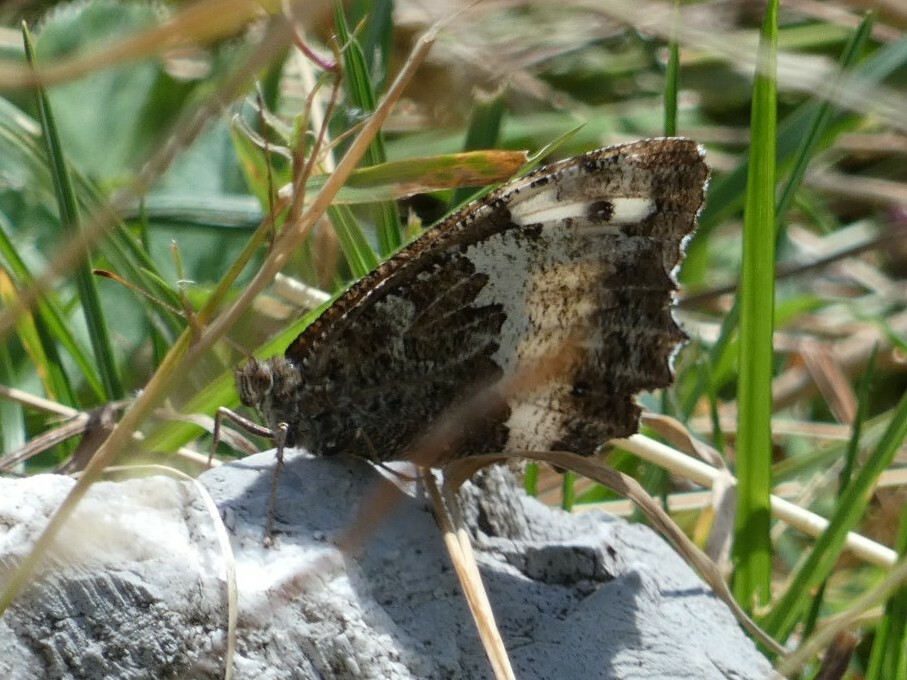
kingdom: Animalia
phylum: Arthropoda
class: Insecta
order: Lepidoptera
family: Lycaenidae
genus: Loweia
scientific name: Loweia tityrus
